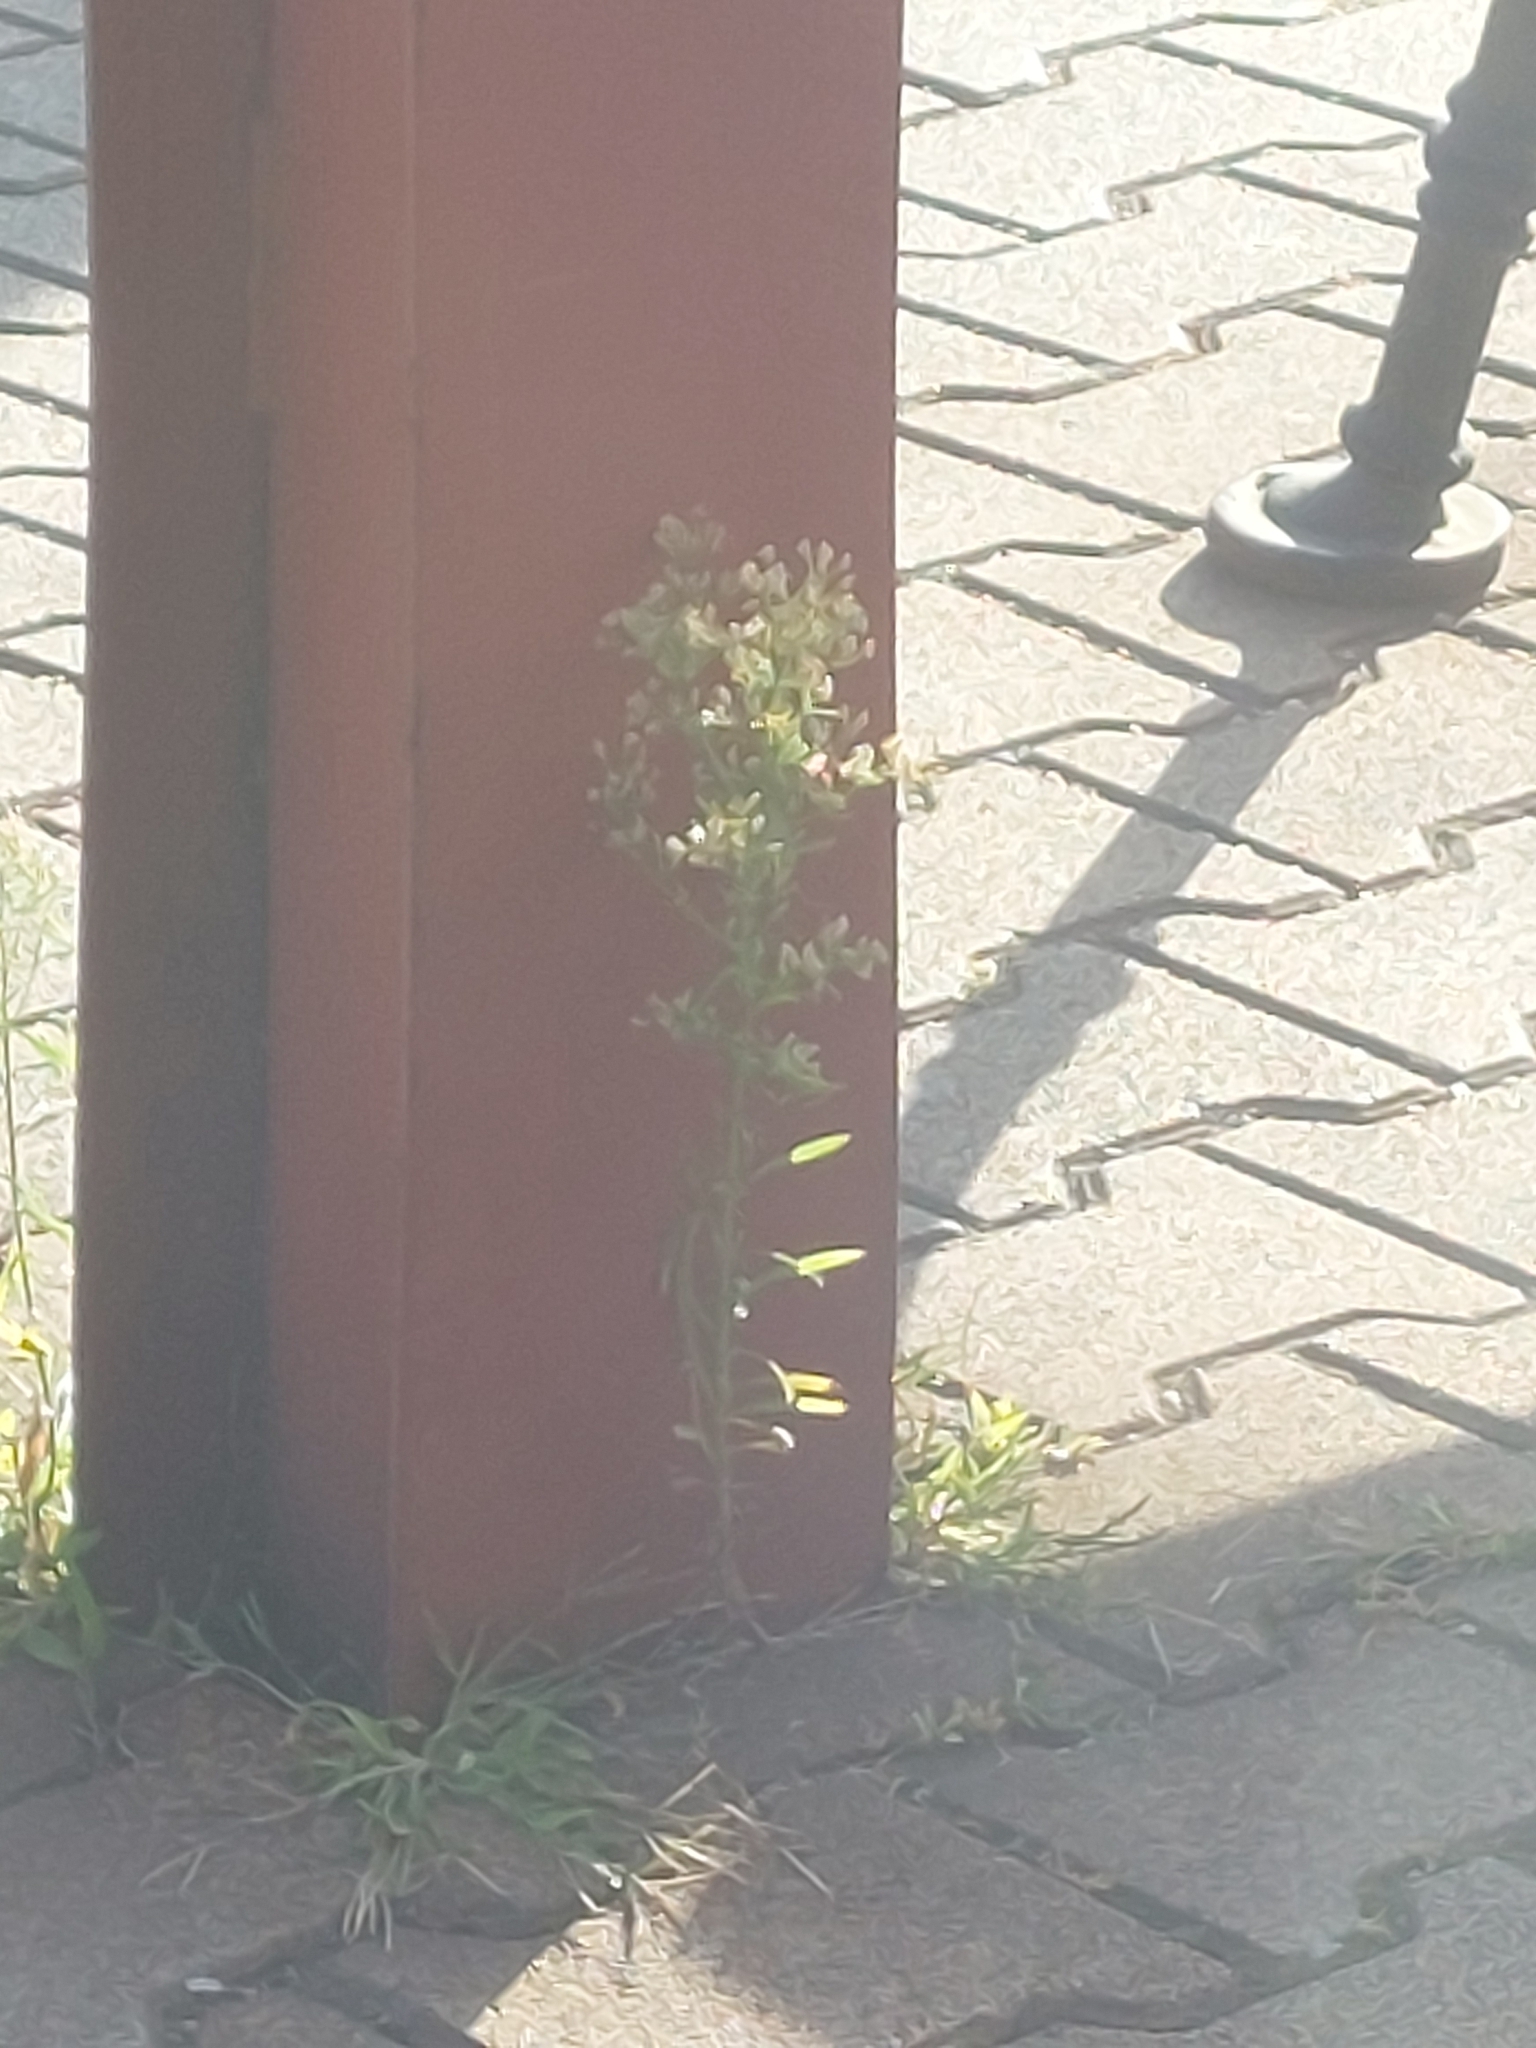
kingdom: Plantae
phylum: Tracheophyta
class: Magnoliopsida
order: Asterales
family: Asteraceae
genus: Erigeron
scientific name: Erigeron canadensis
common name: Canadian fleabane
